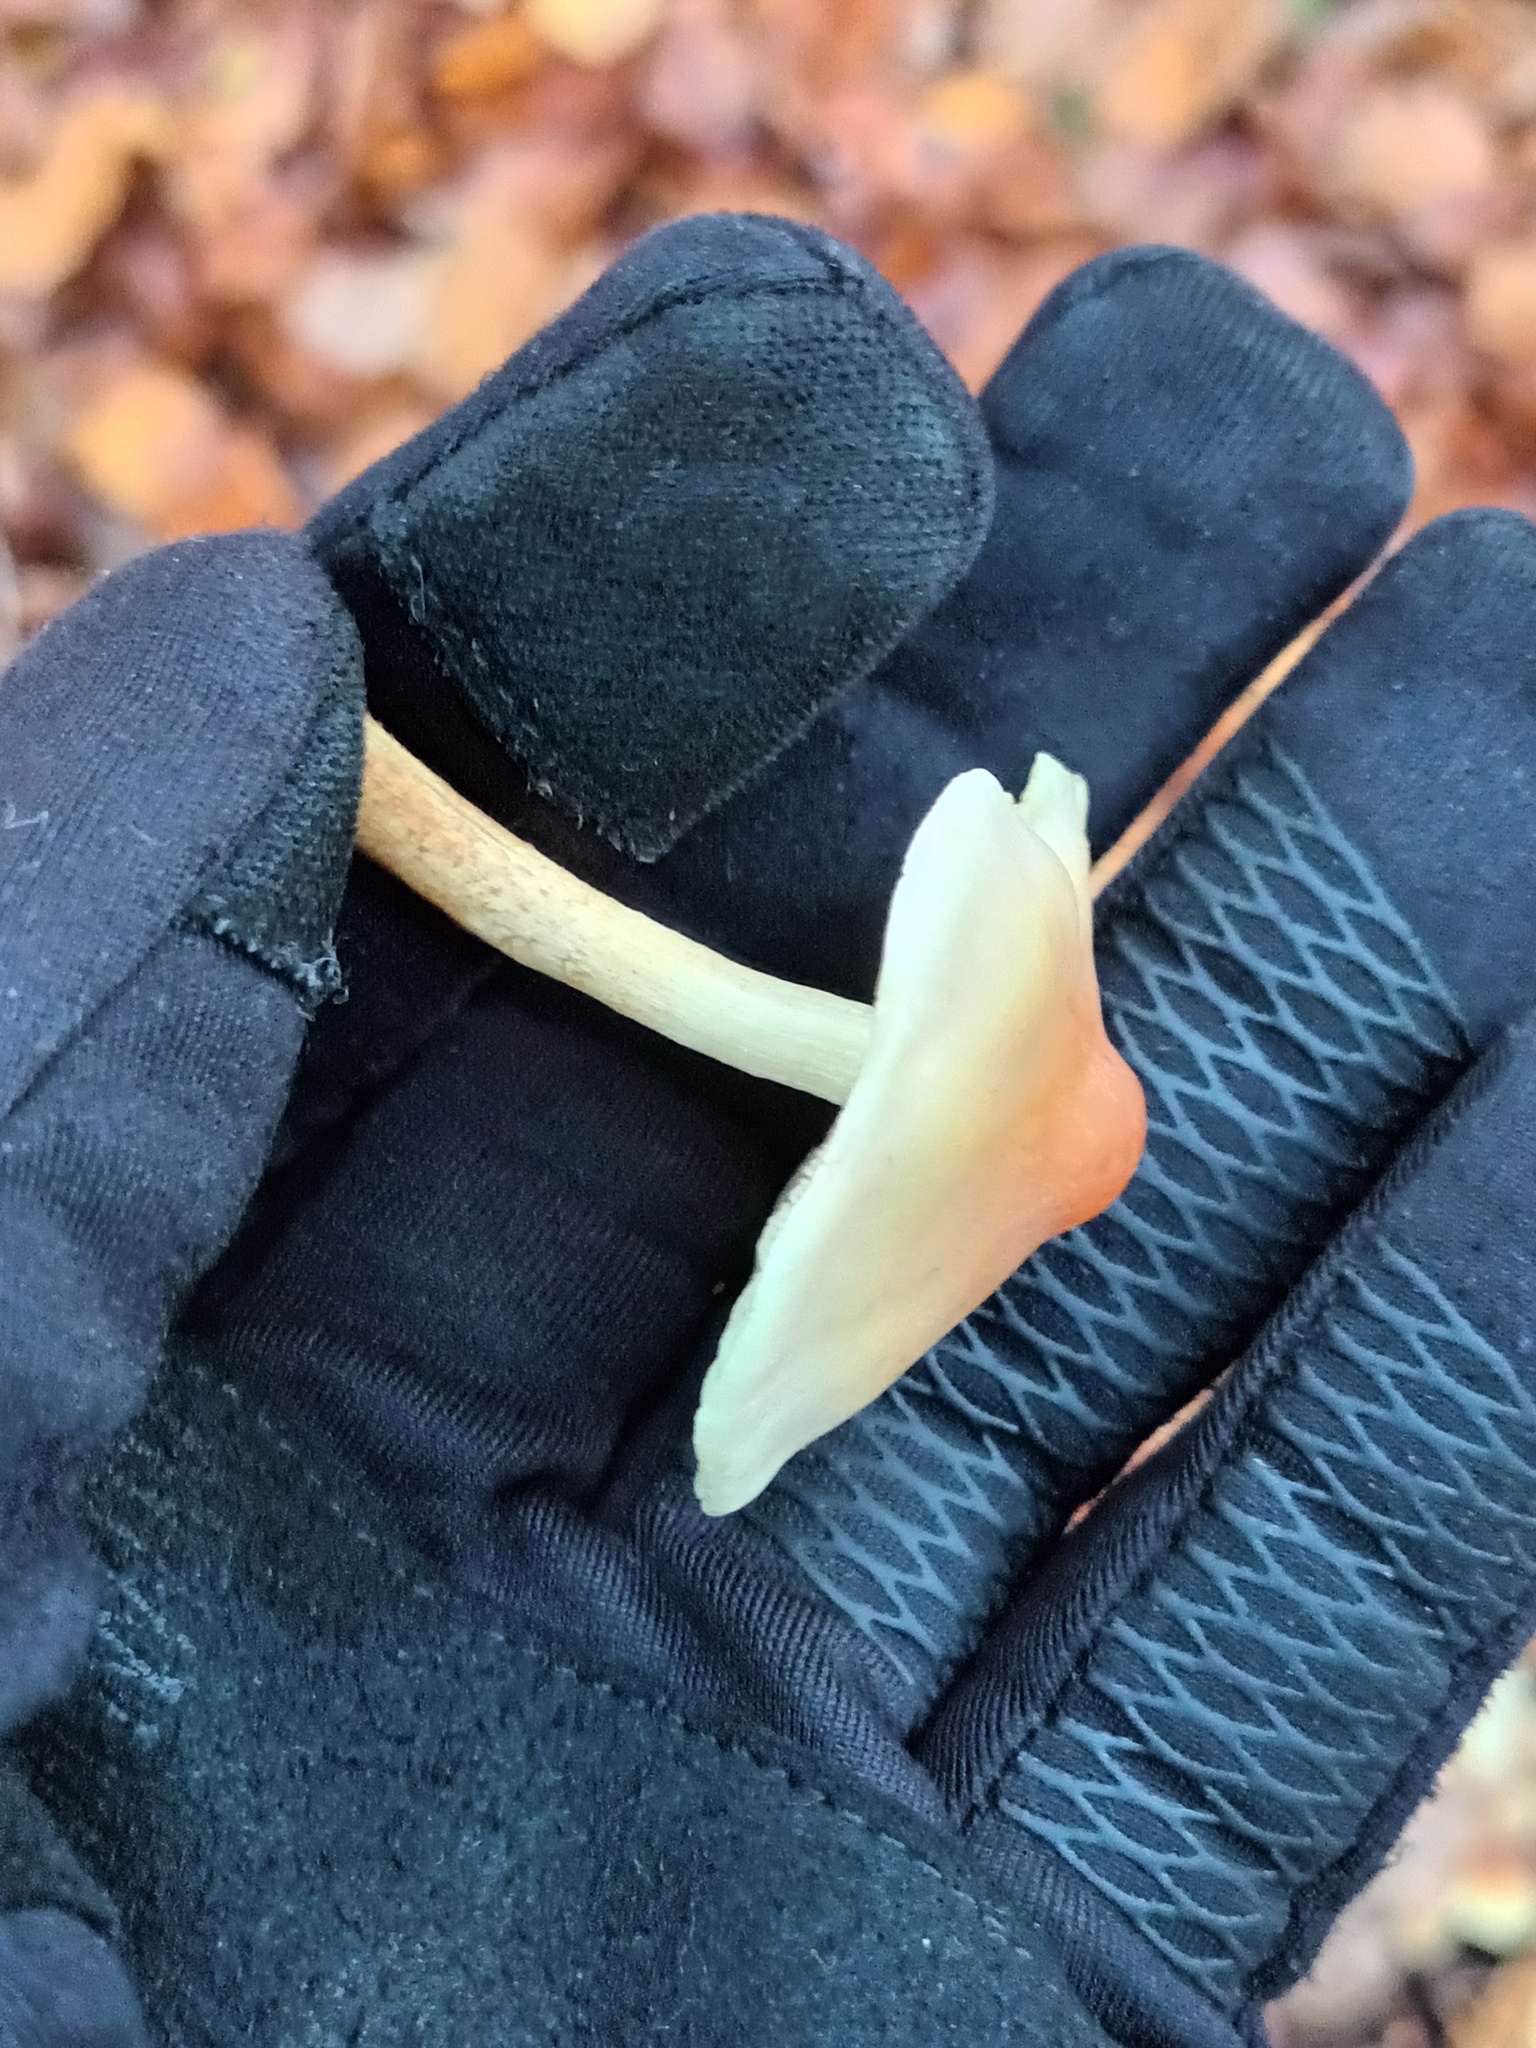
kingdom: Fungi
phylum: Basidiomycota
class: Agaricomycetes
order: Agaricales
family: Strophariaceae
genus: Hypholoma
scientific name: Hypholoma fasciculare
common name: Sulphur tuft
